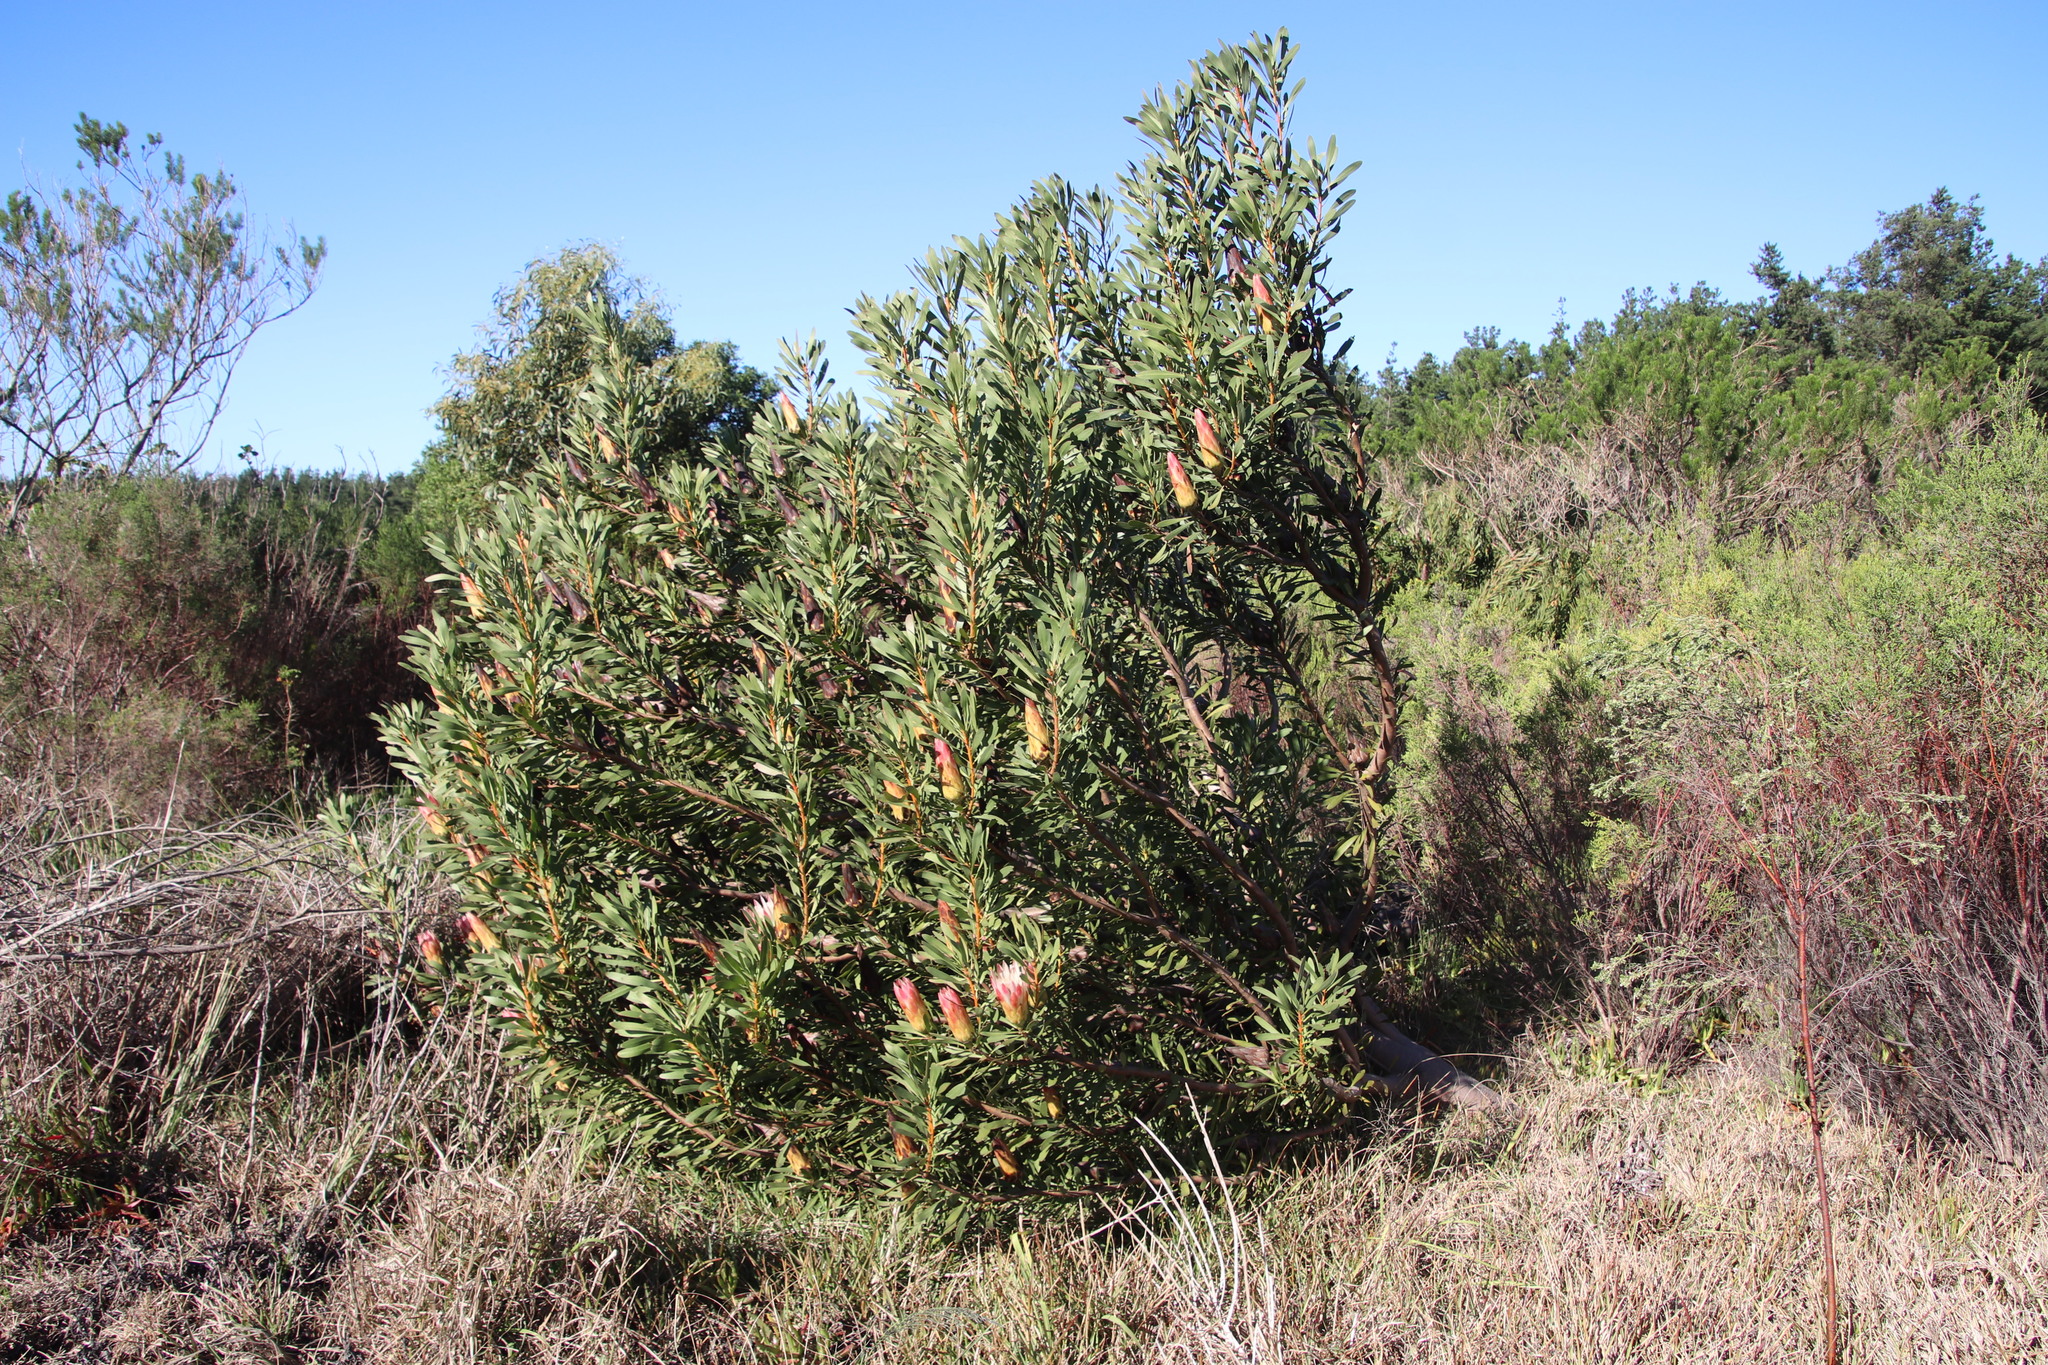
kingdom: Plantae
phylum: Tracheophyta
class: Magnoliopsida
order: Proteales
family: Proteaceae
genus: Protea
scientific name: Protea repens
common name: Sugarbush
